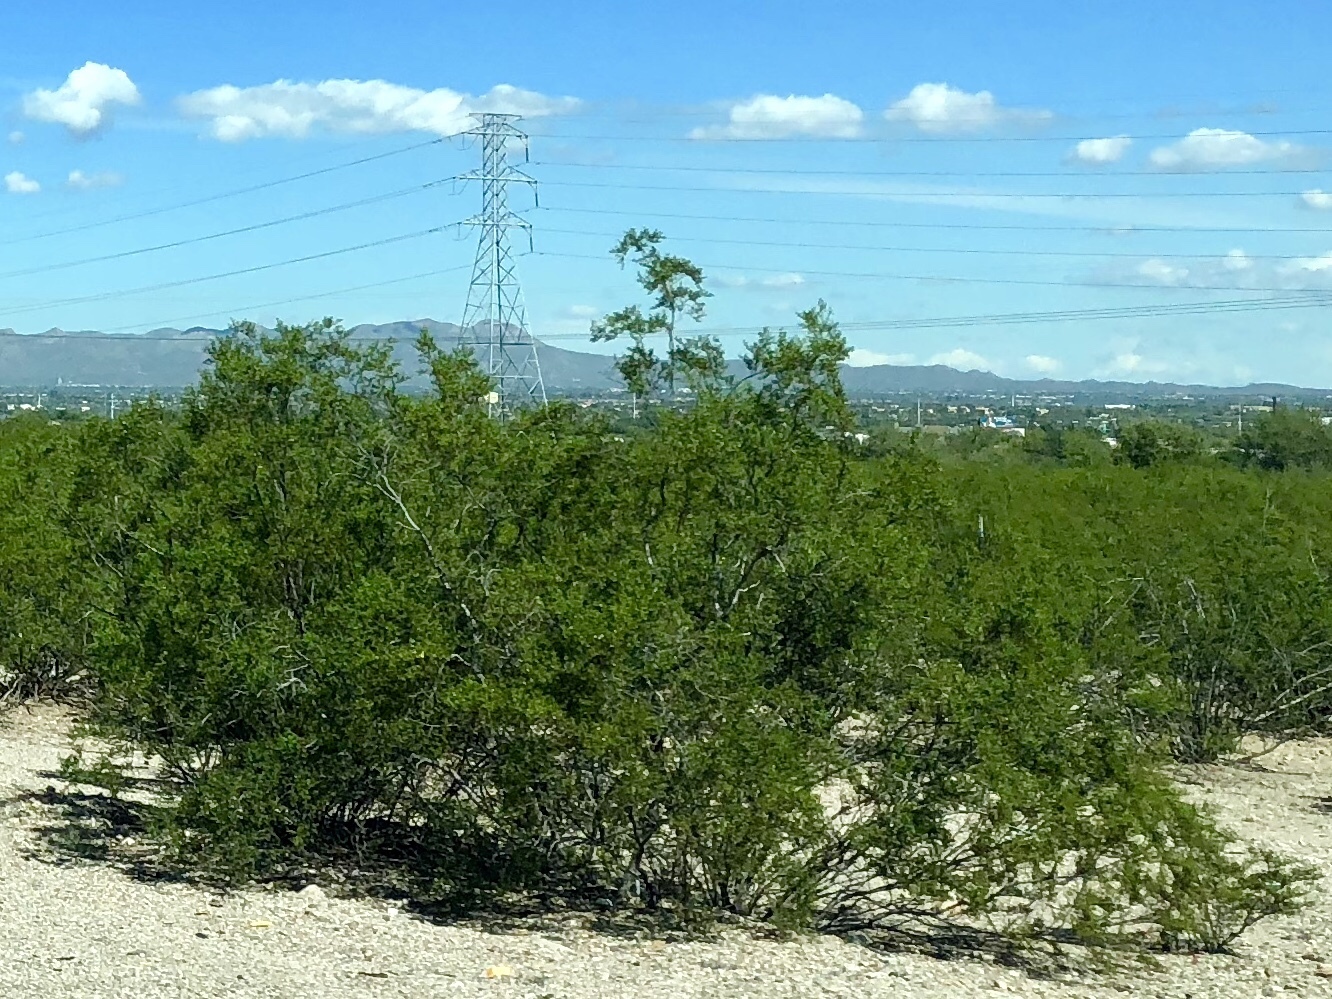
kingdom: Plantae
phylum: Tracheophyta
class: Magnoliopsida
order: Zygophyllales
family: Zygophyllaceae
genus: Larrea
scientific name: Larrea tridentata
